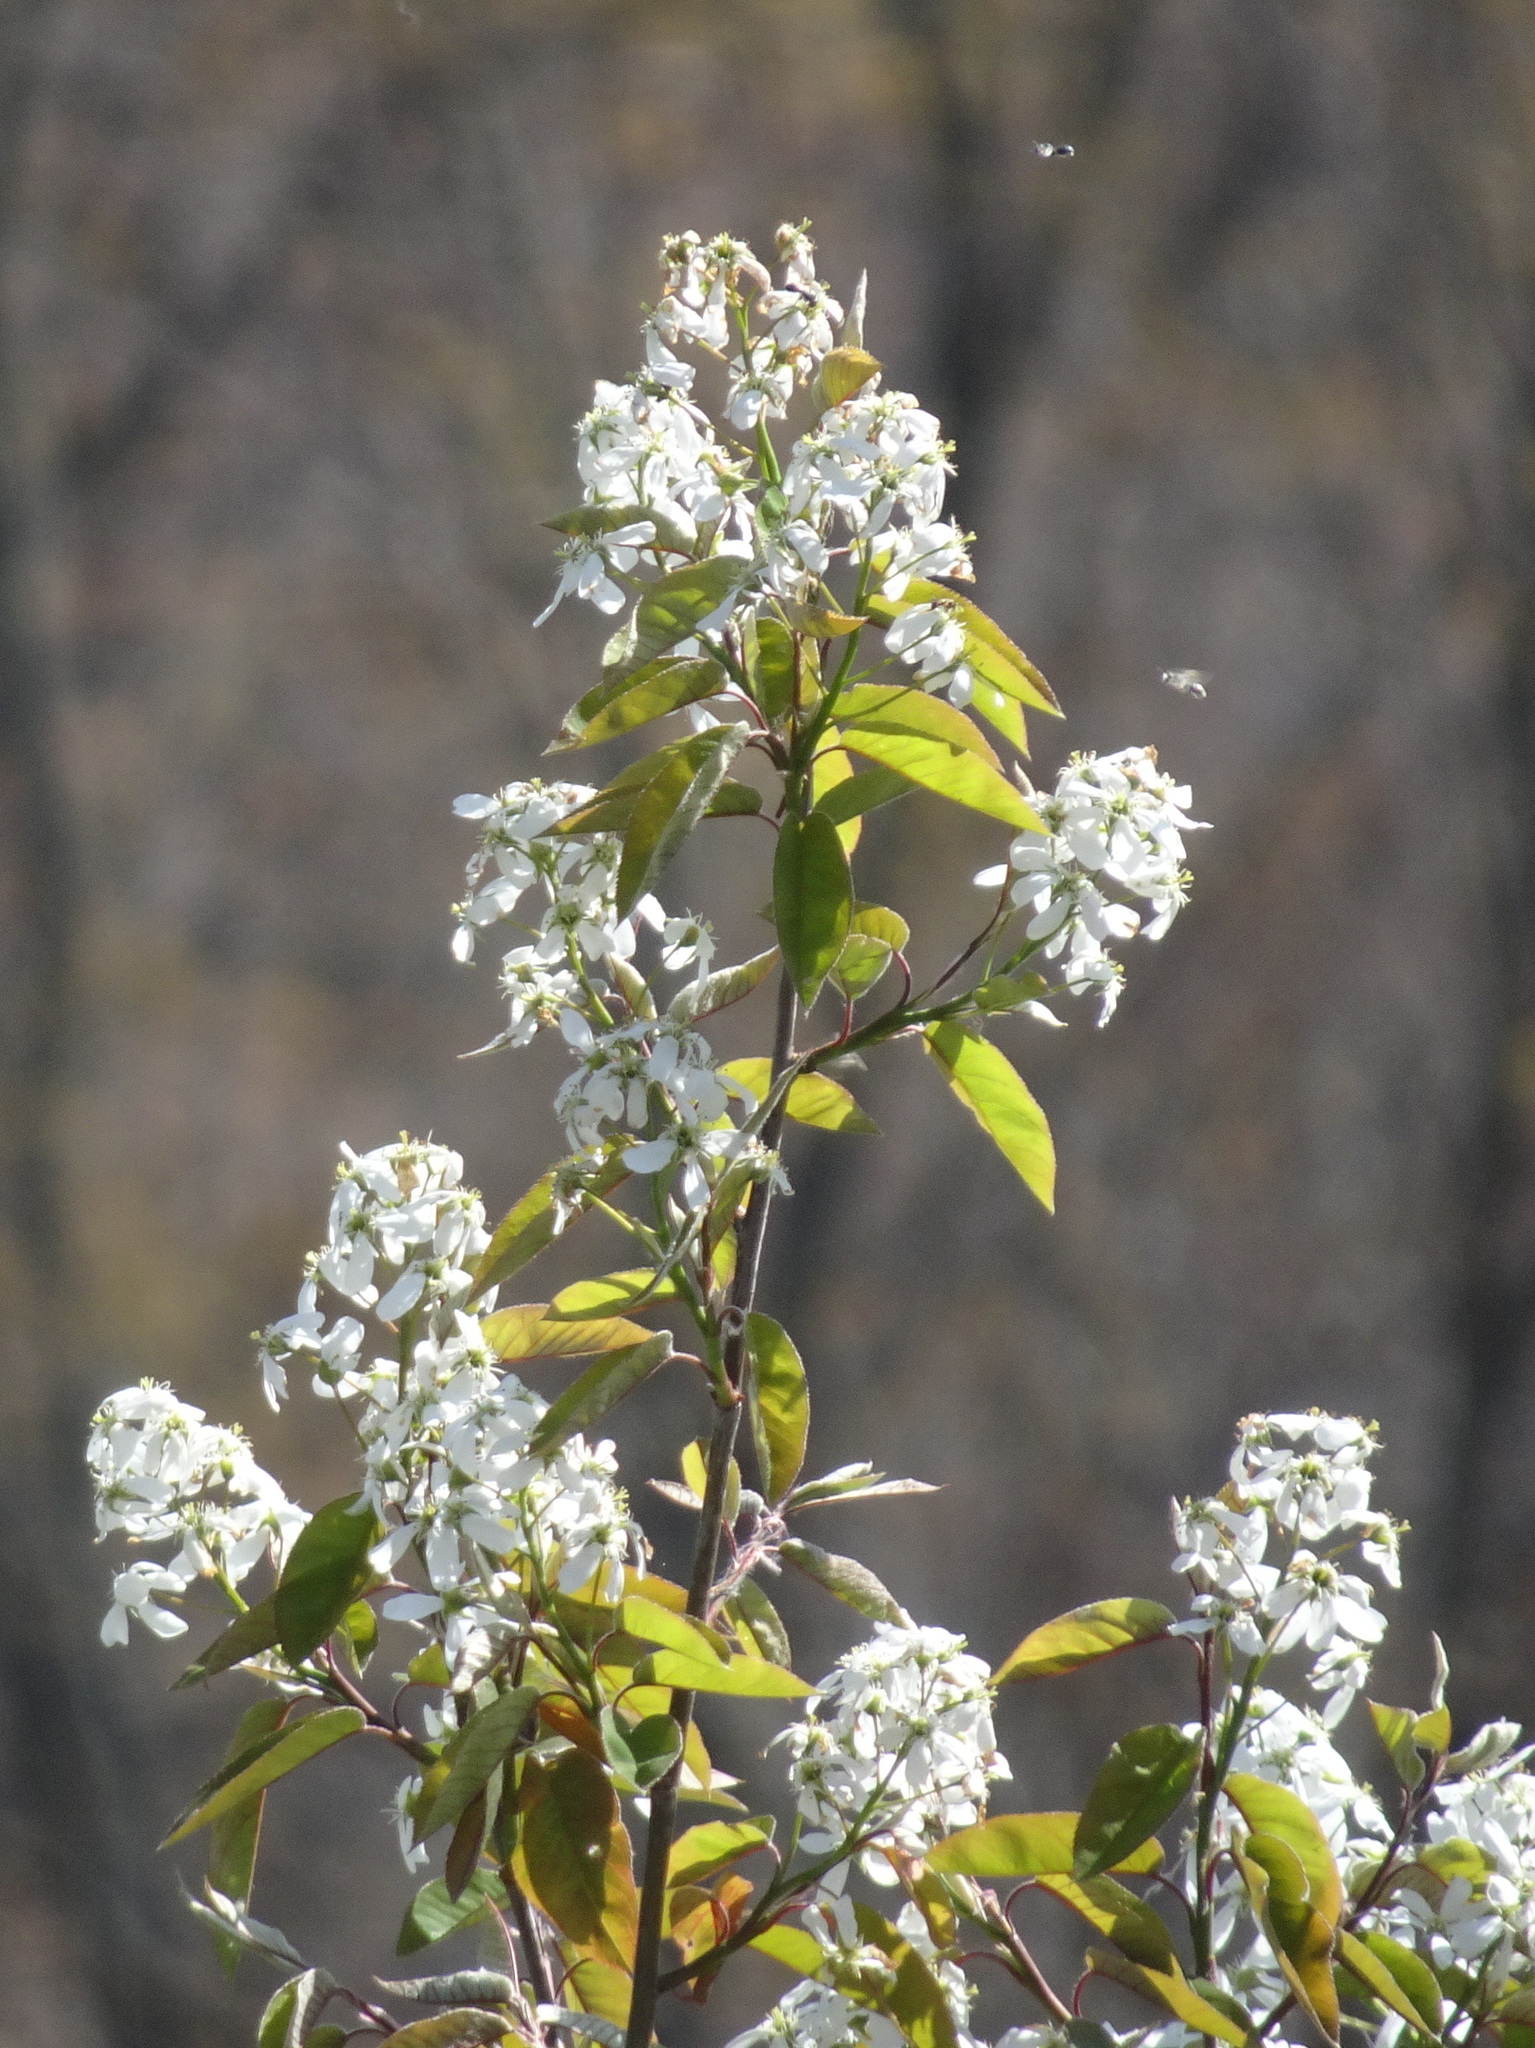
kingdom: Plantae
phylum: Tracheophyta
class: Magnoliopsida
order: Rosales
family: Rosaceae
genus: Amelanchier
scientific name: Amelanchier laevis
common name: Allegheny serviceberry
